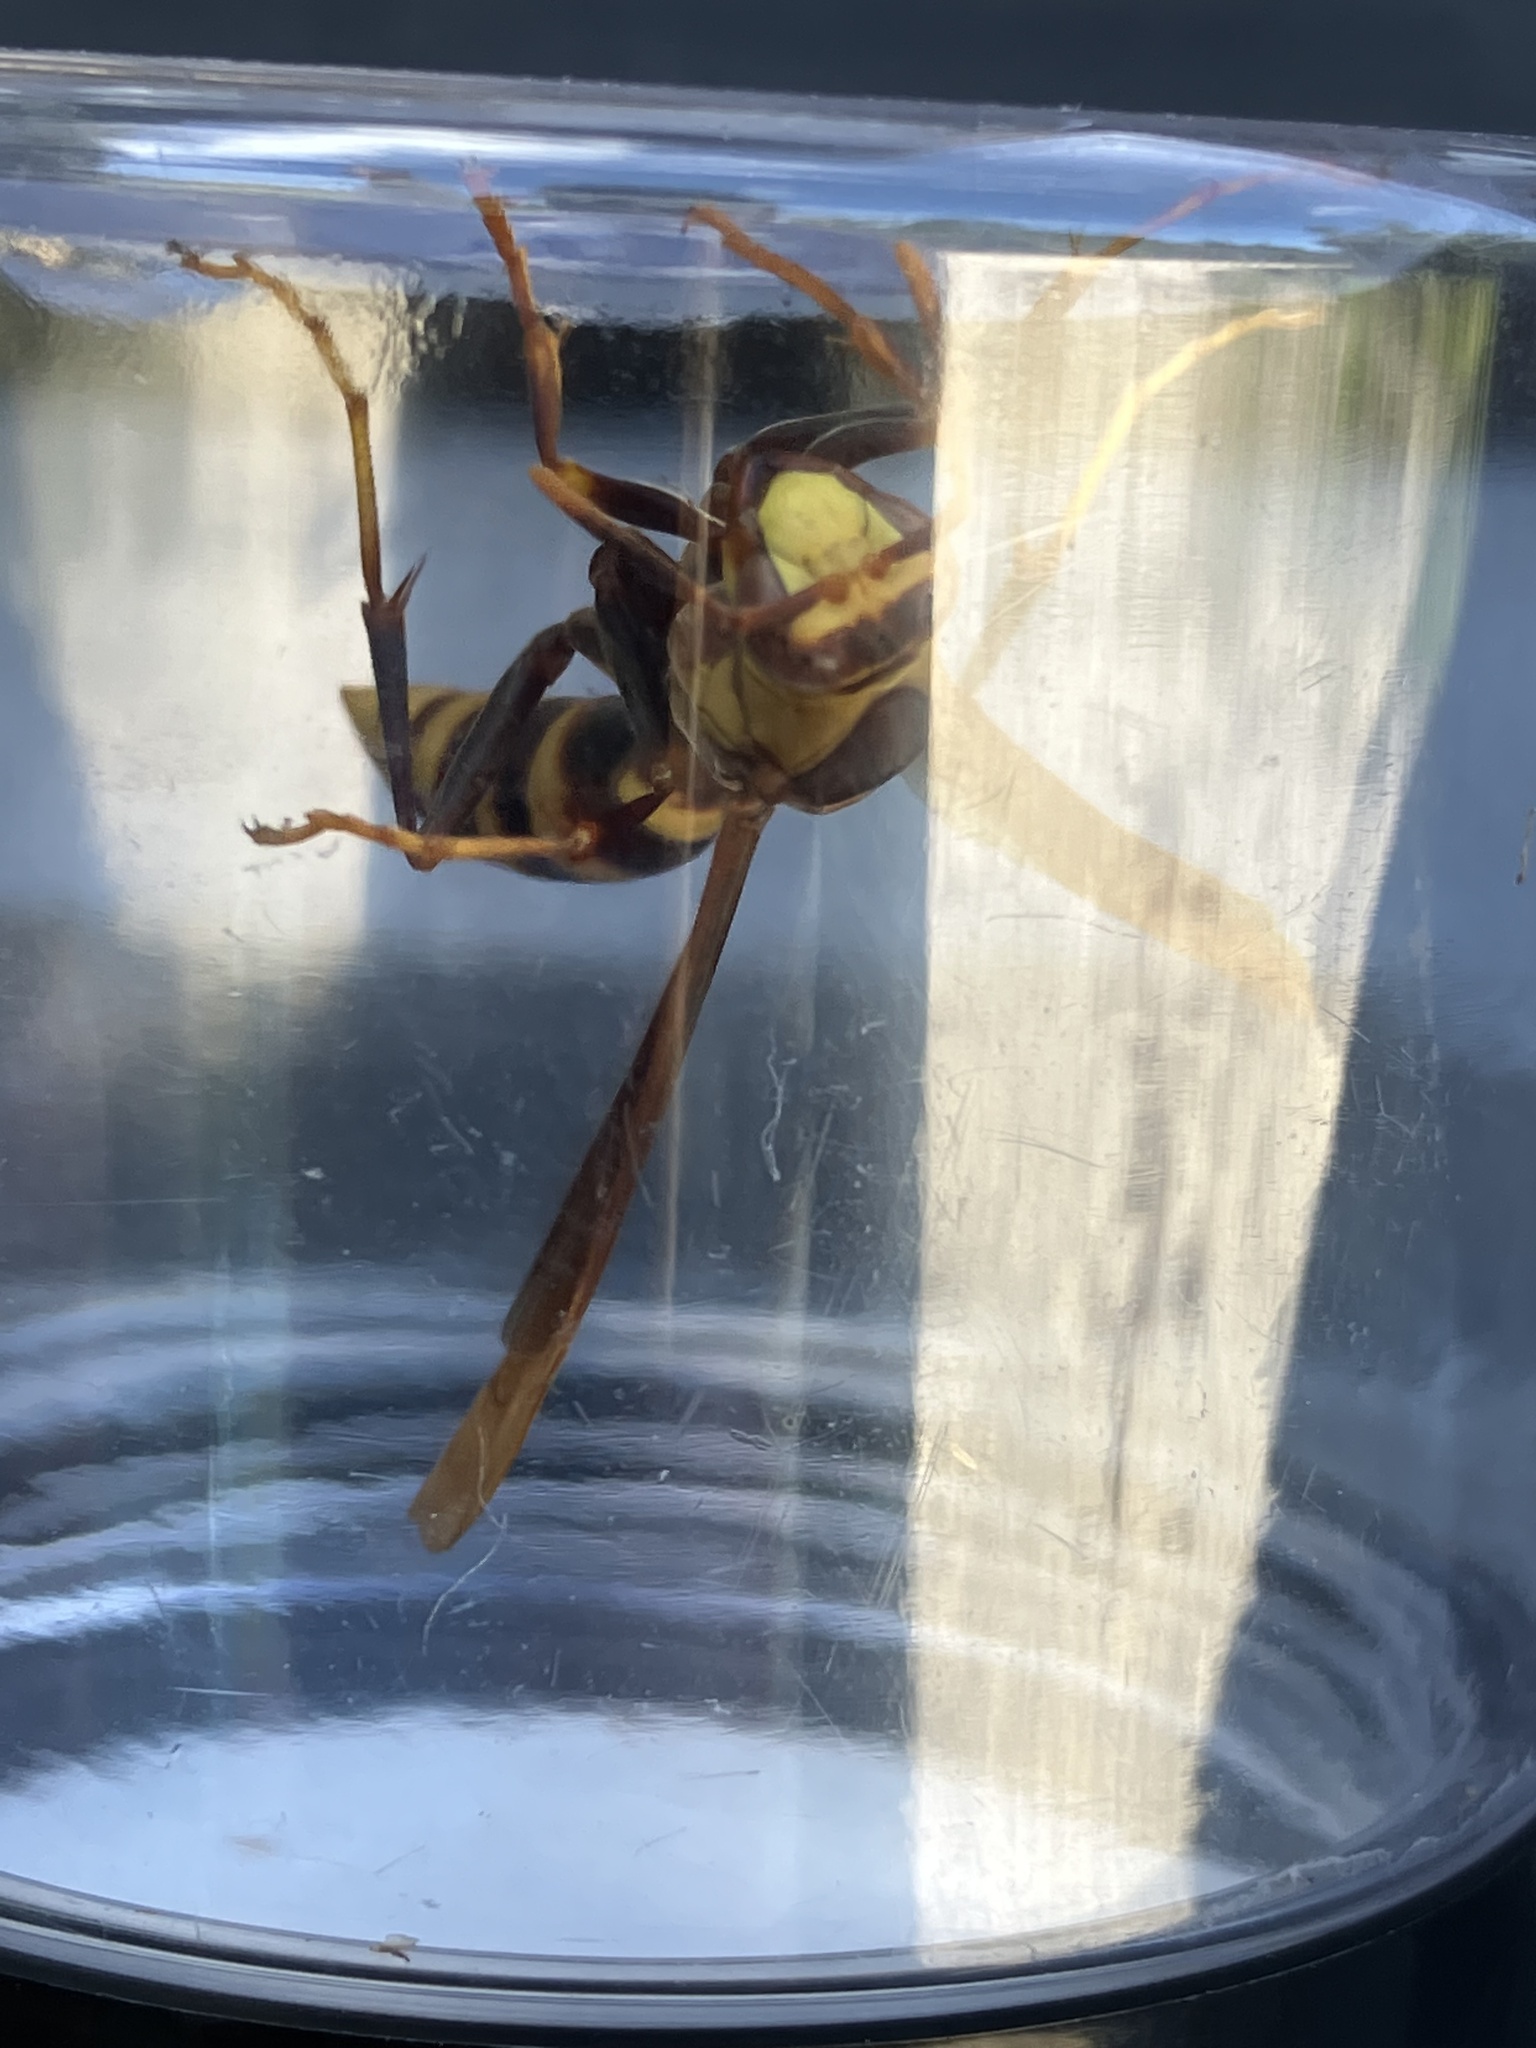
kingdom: Animalia
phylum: Arthropoda
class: Insecta
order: Hymenoptera
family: Eumenidae
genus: Polistes
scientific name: Polistes major
